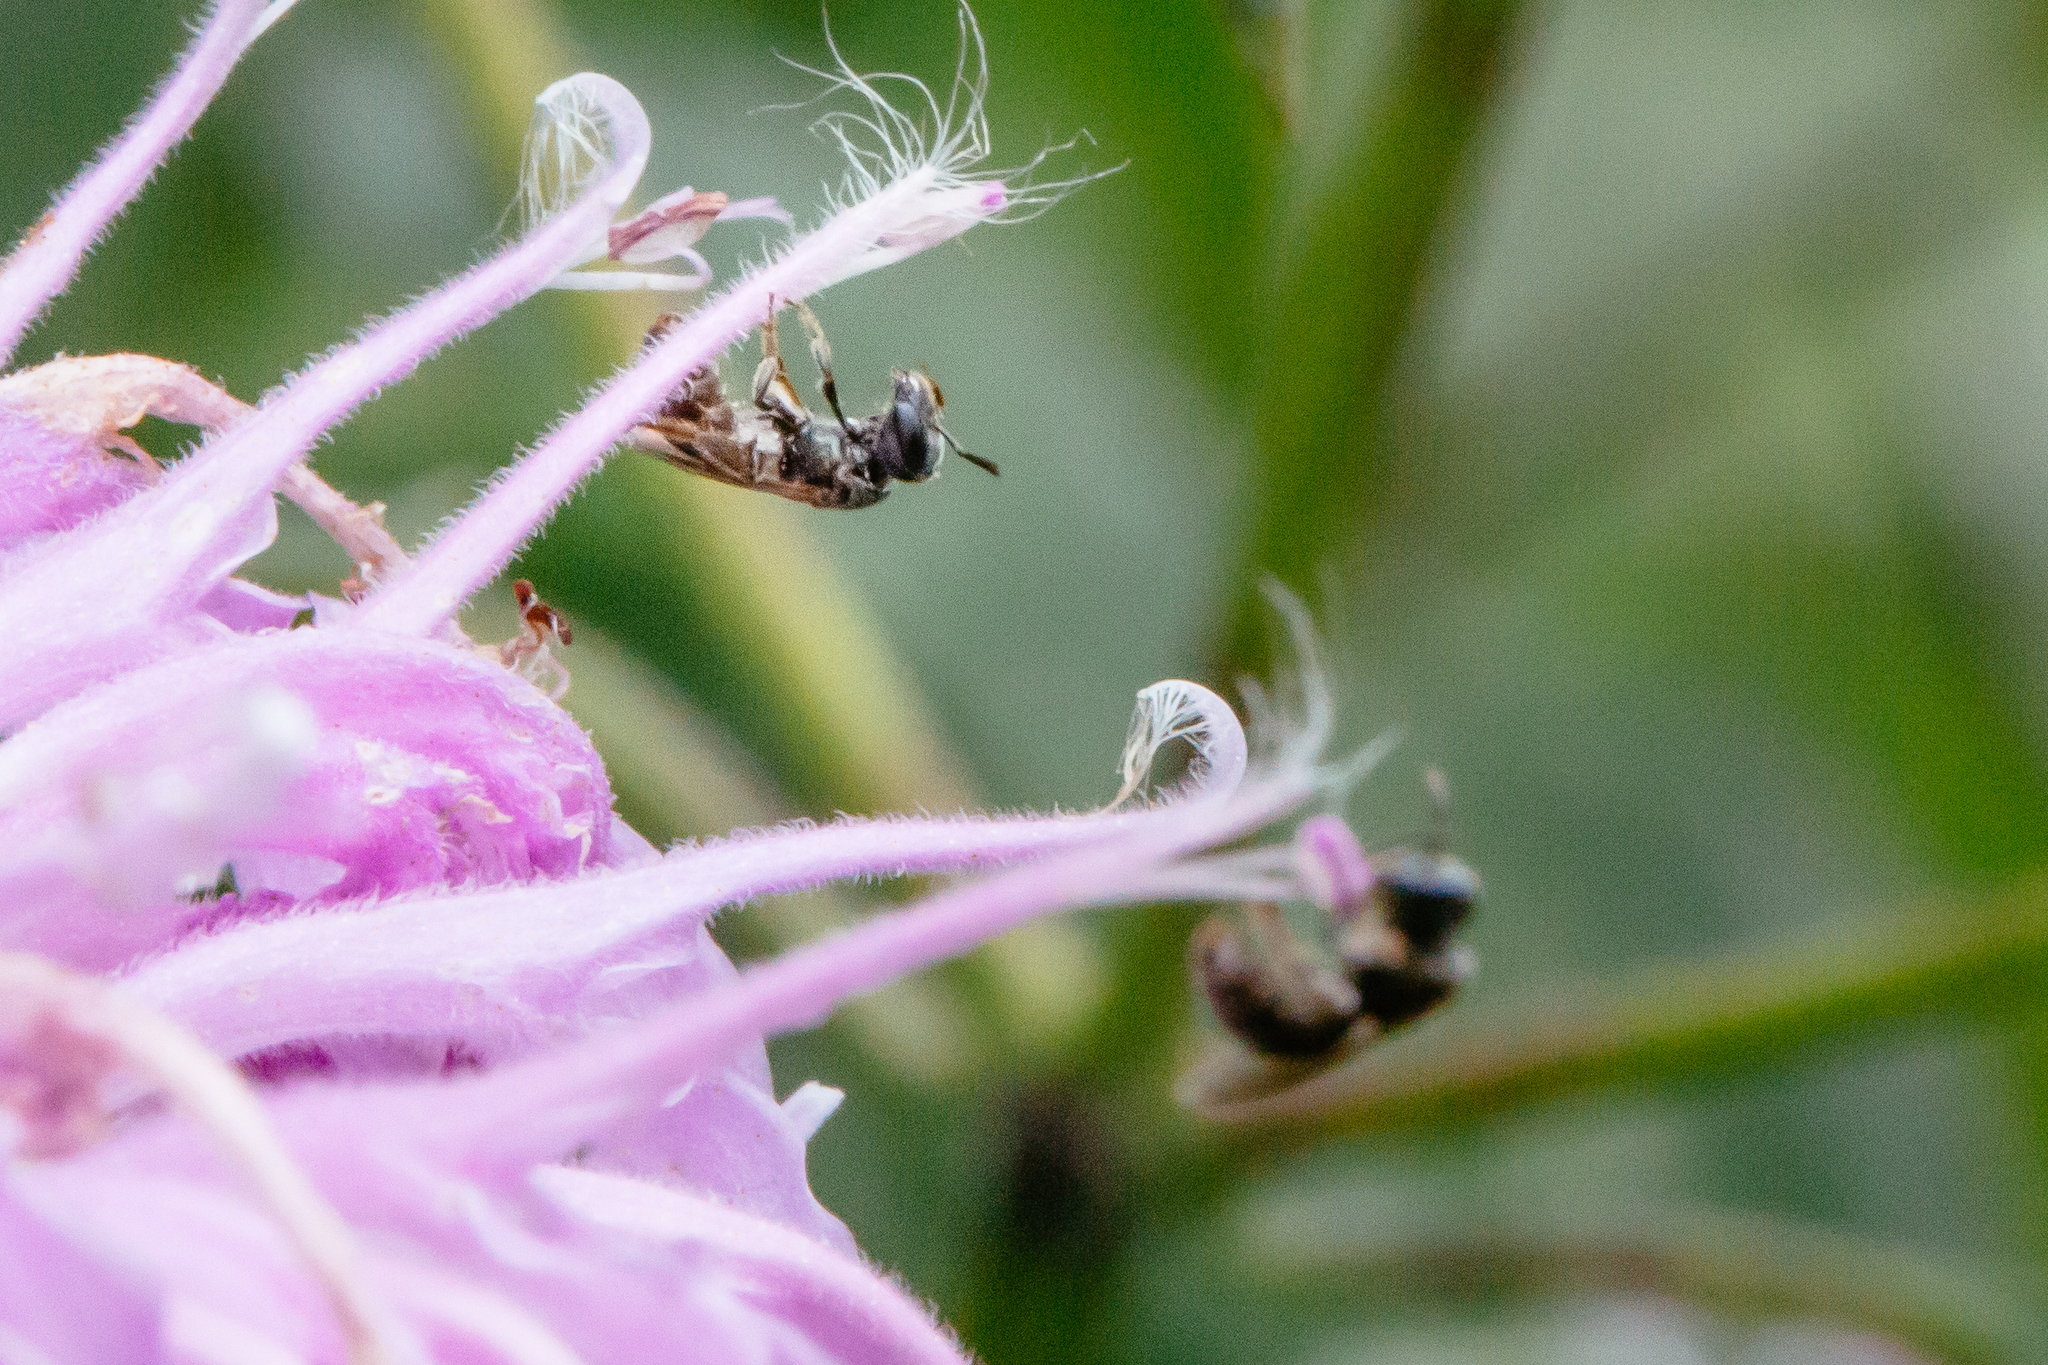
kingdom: Animalia
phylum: Arthropoda
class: Insecta
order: Hymenoptera
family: Halictidae
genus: Dialictus
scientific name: Dialictus
